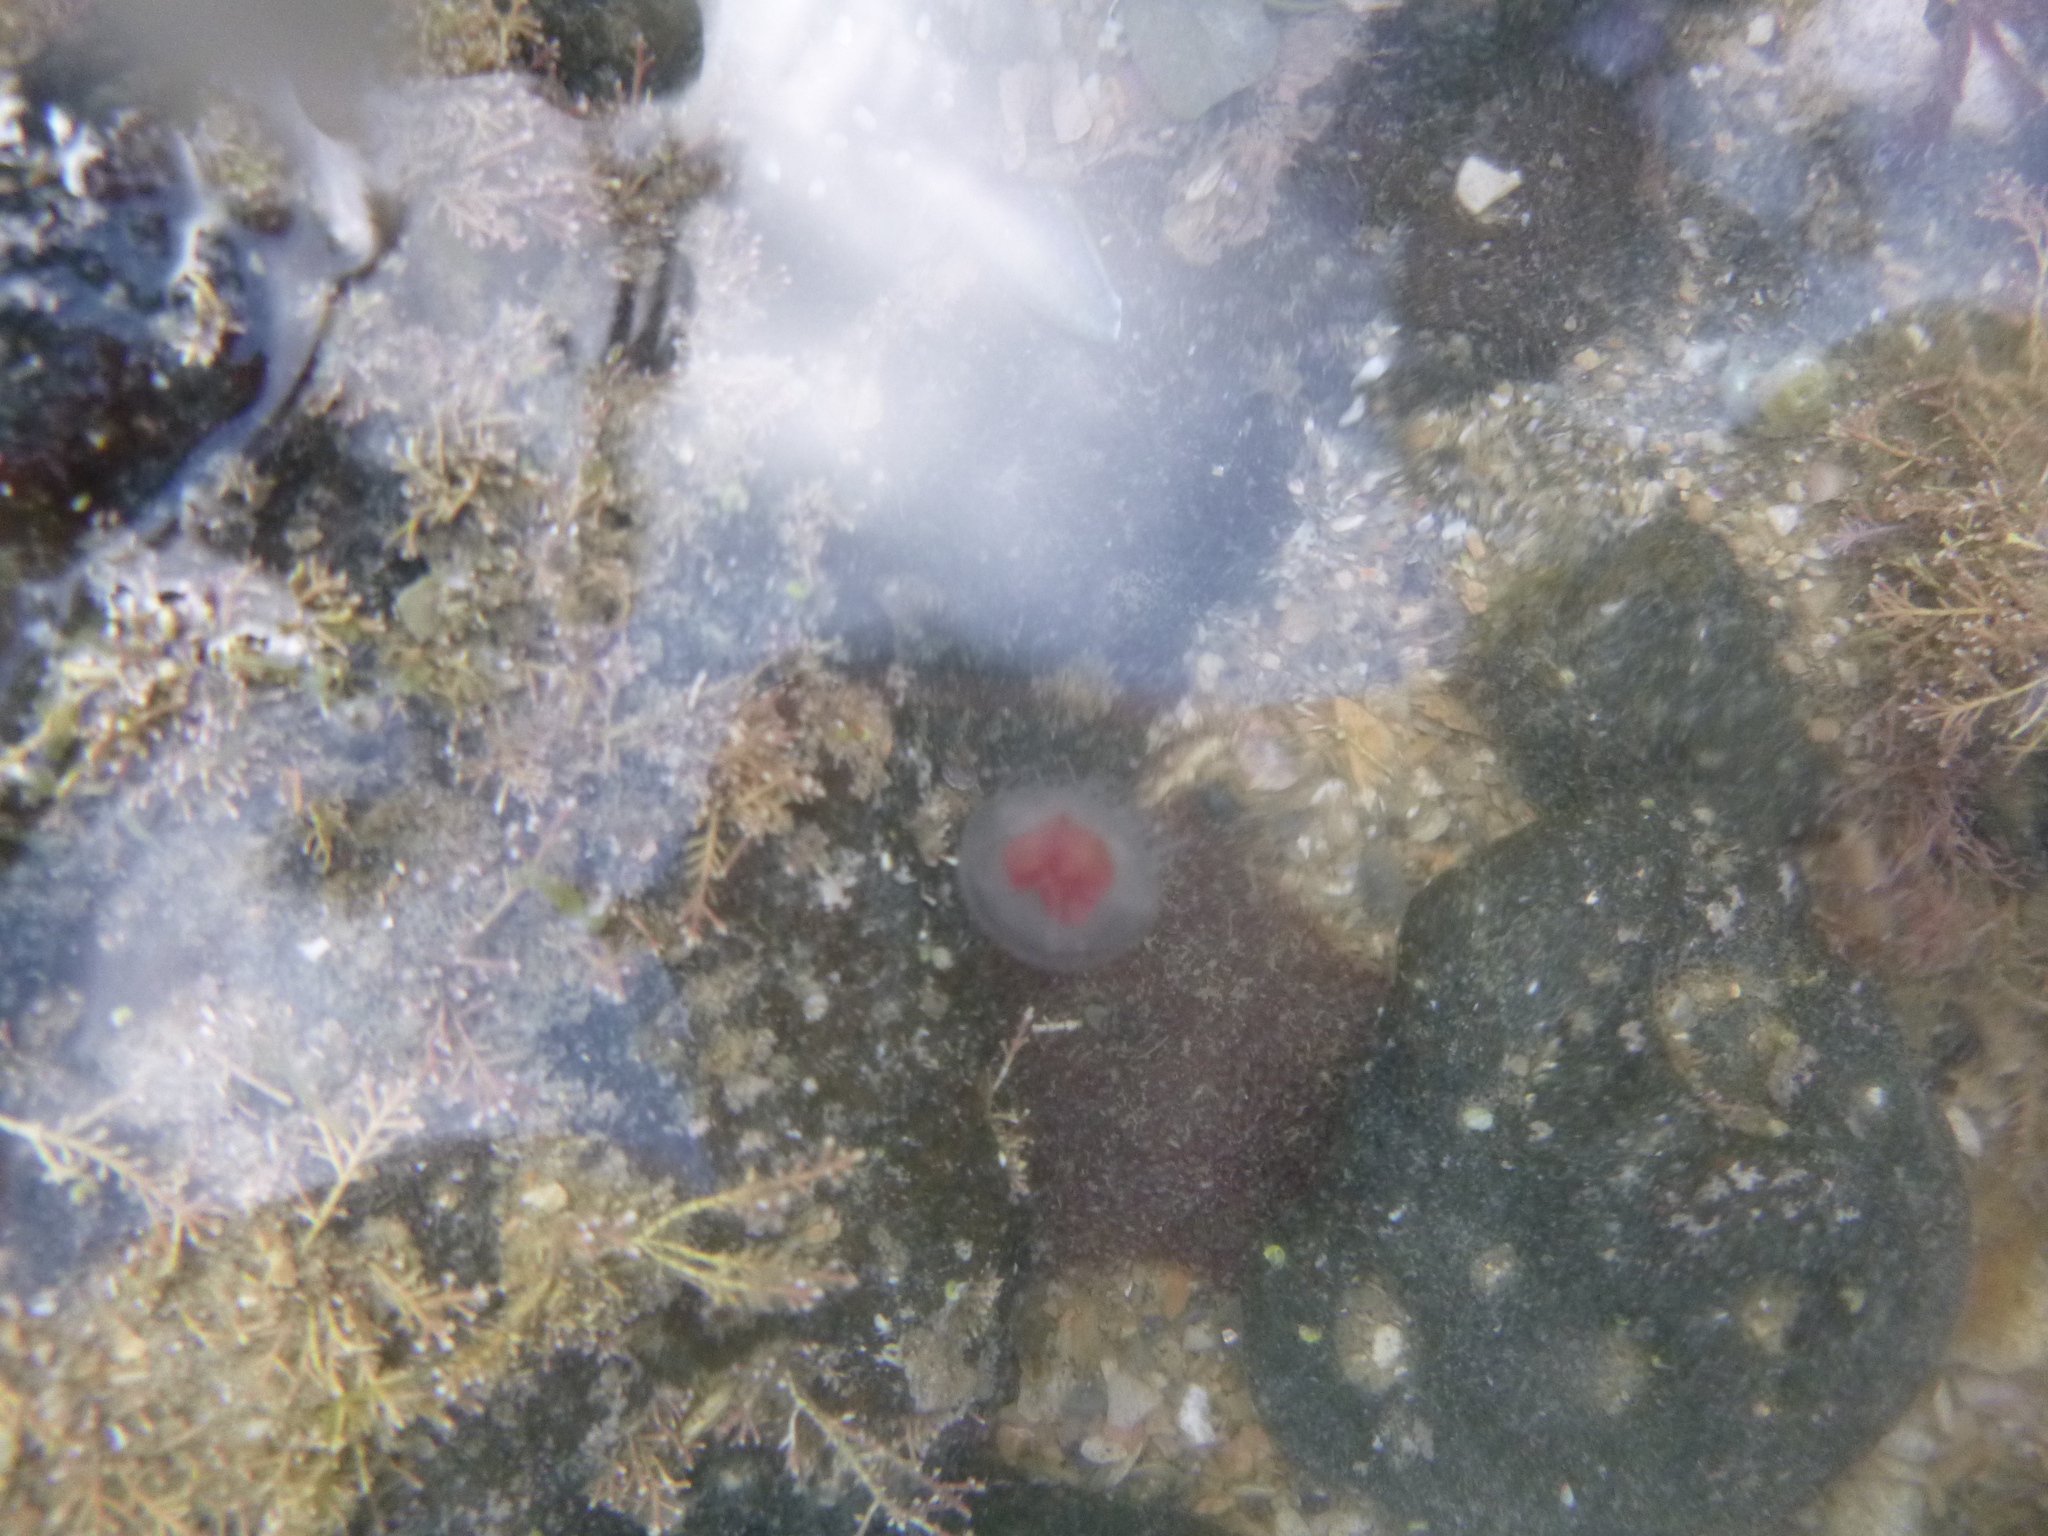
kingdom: Animalia
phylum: Cnidaria
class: Hydrozoa
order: Anthoathecata
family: Oceaniidae
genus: Turritopsis
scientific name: Turritopsis rubra
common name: Crimson jelly
